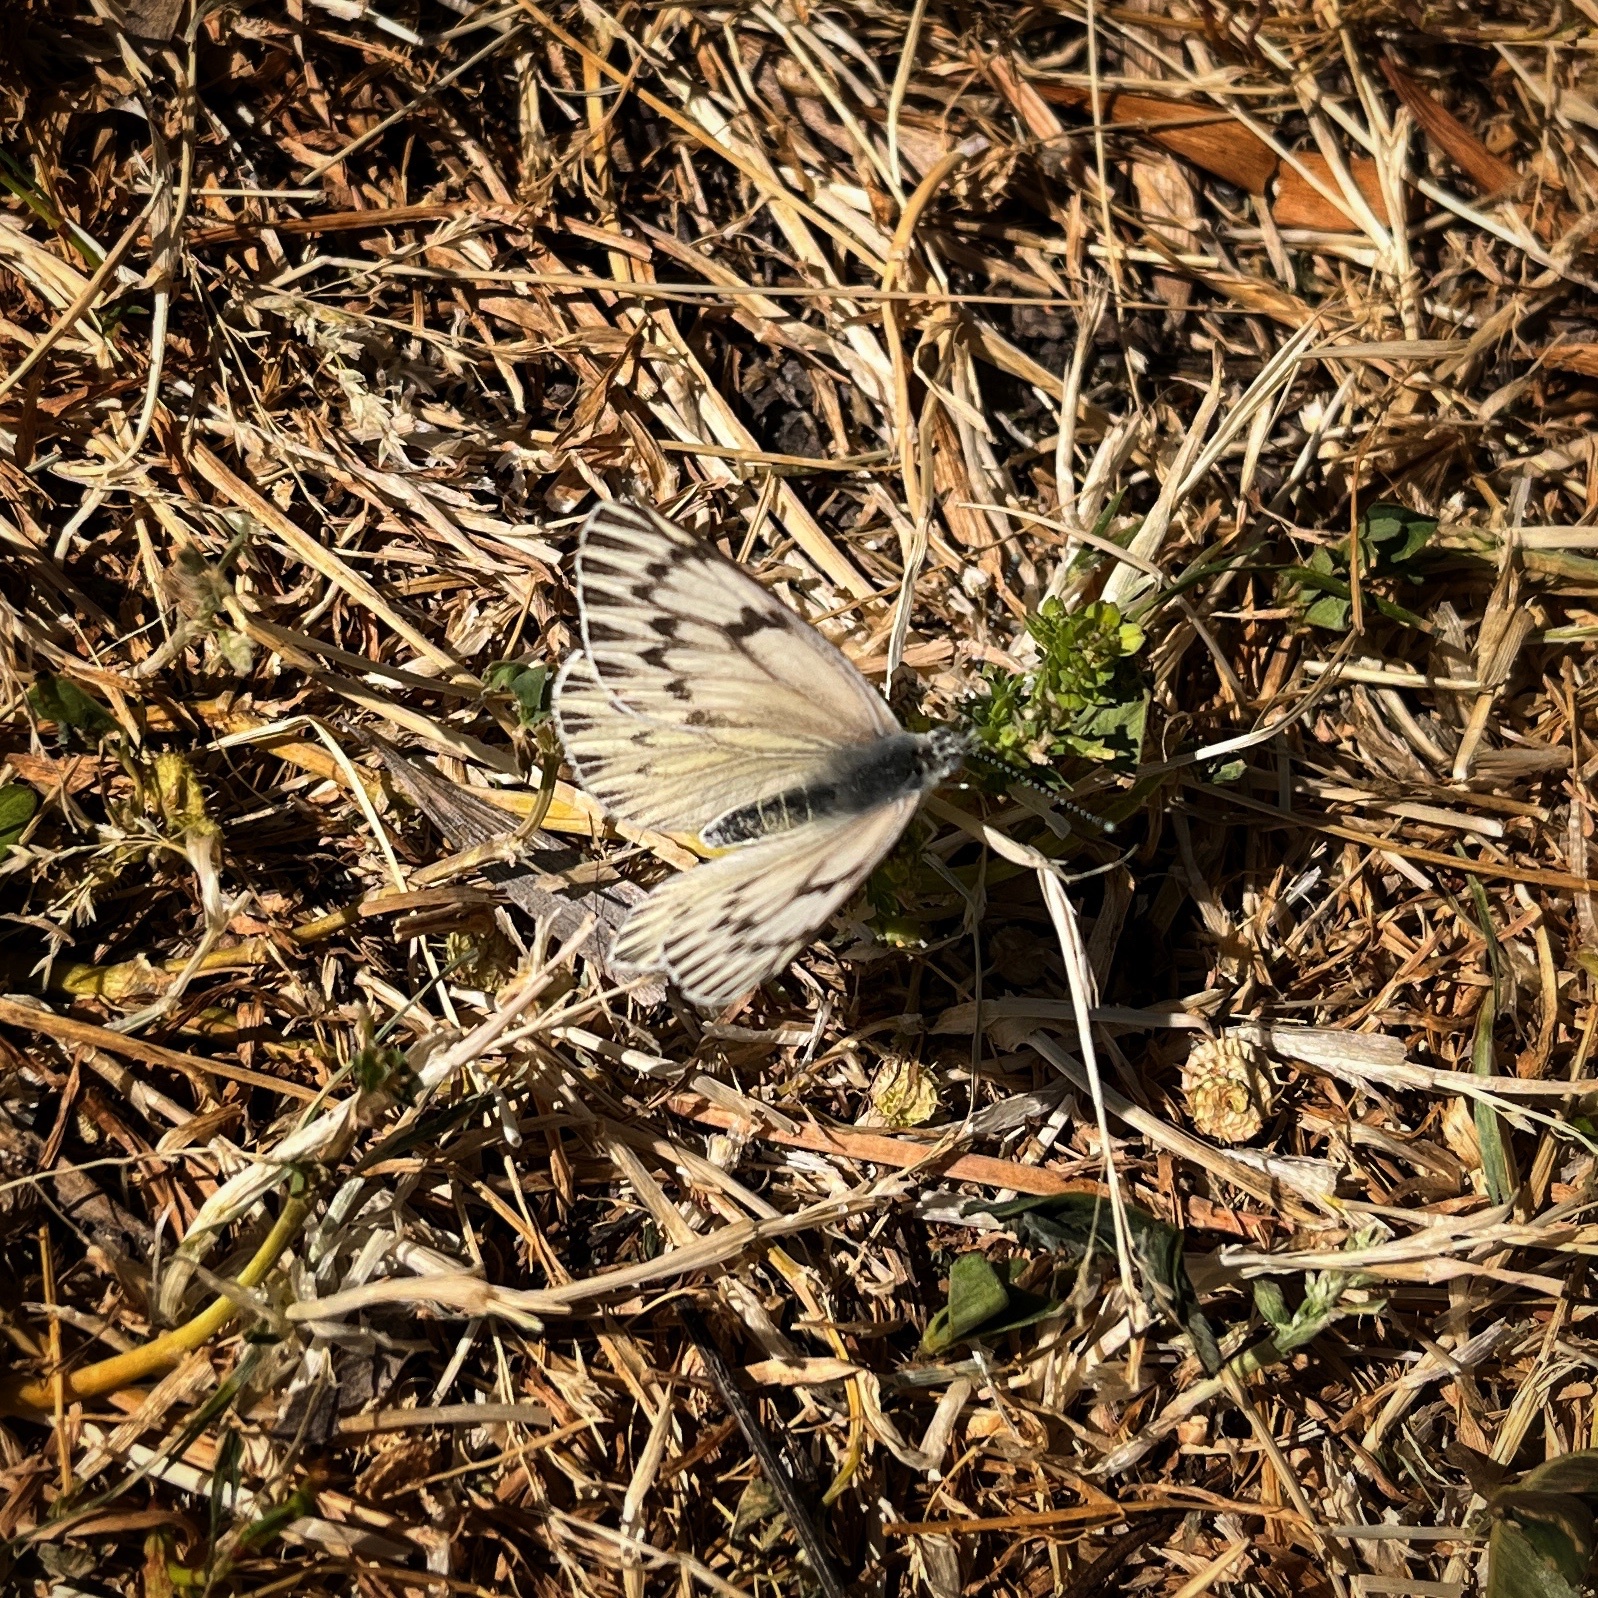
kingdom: Animalia
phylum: Arthropoda
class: Insecta
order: Lepidoptera
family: Pieridae
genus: Tatochila
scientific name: Tatochila mercedis
